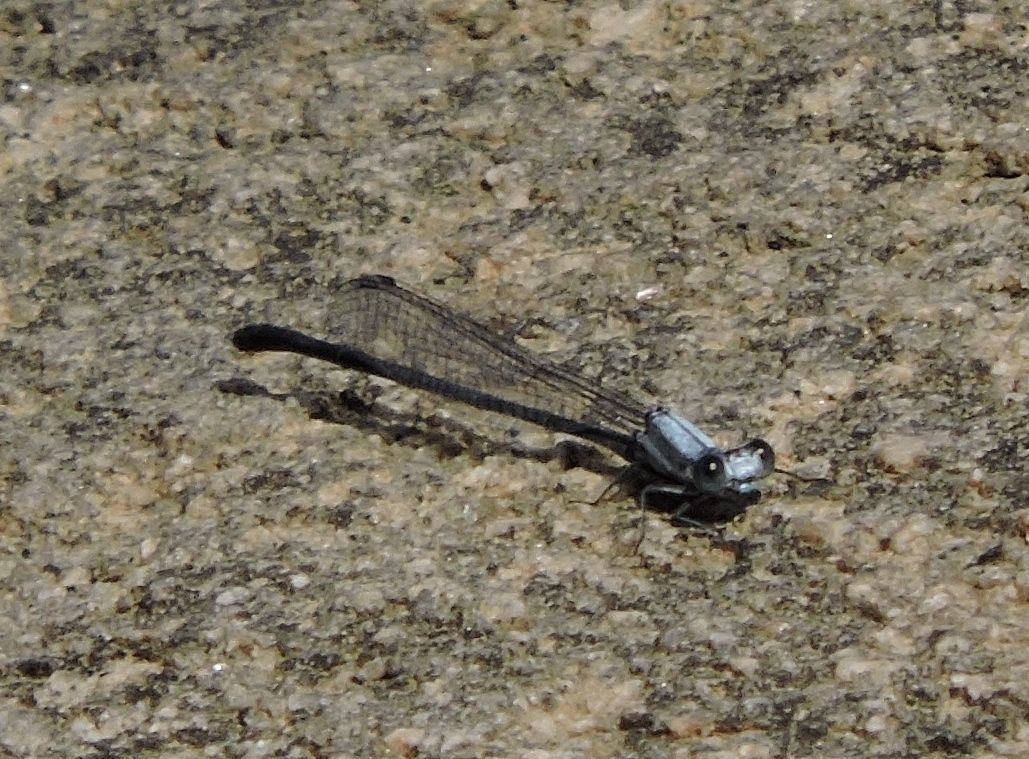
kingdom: Animalia
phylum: Arthropoda
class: Insecta
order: Odonata
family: Coenagrionidae
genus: Argia
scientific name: Argia moesta
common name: Powdered dancer
